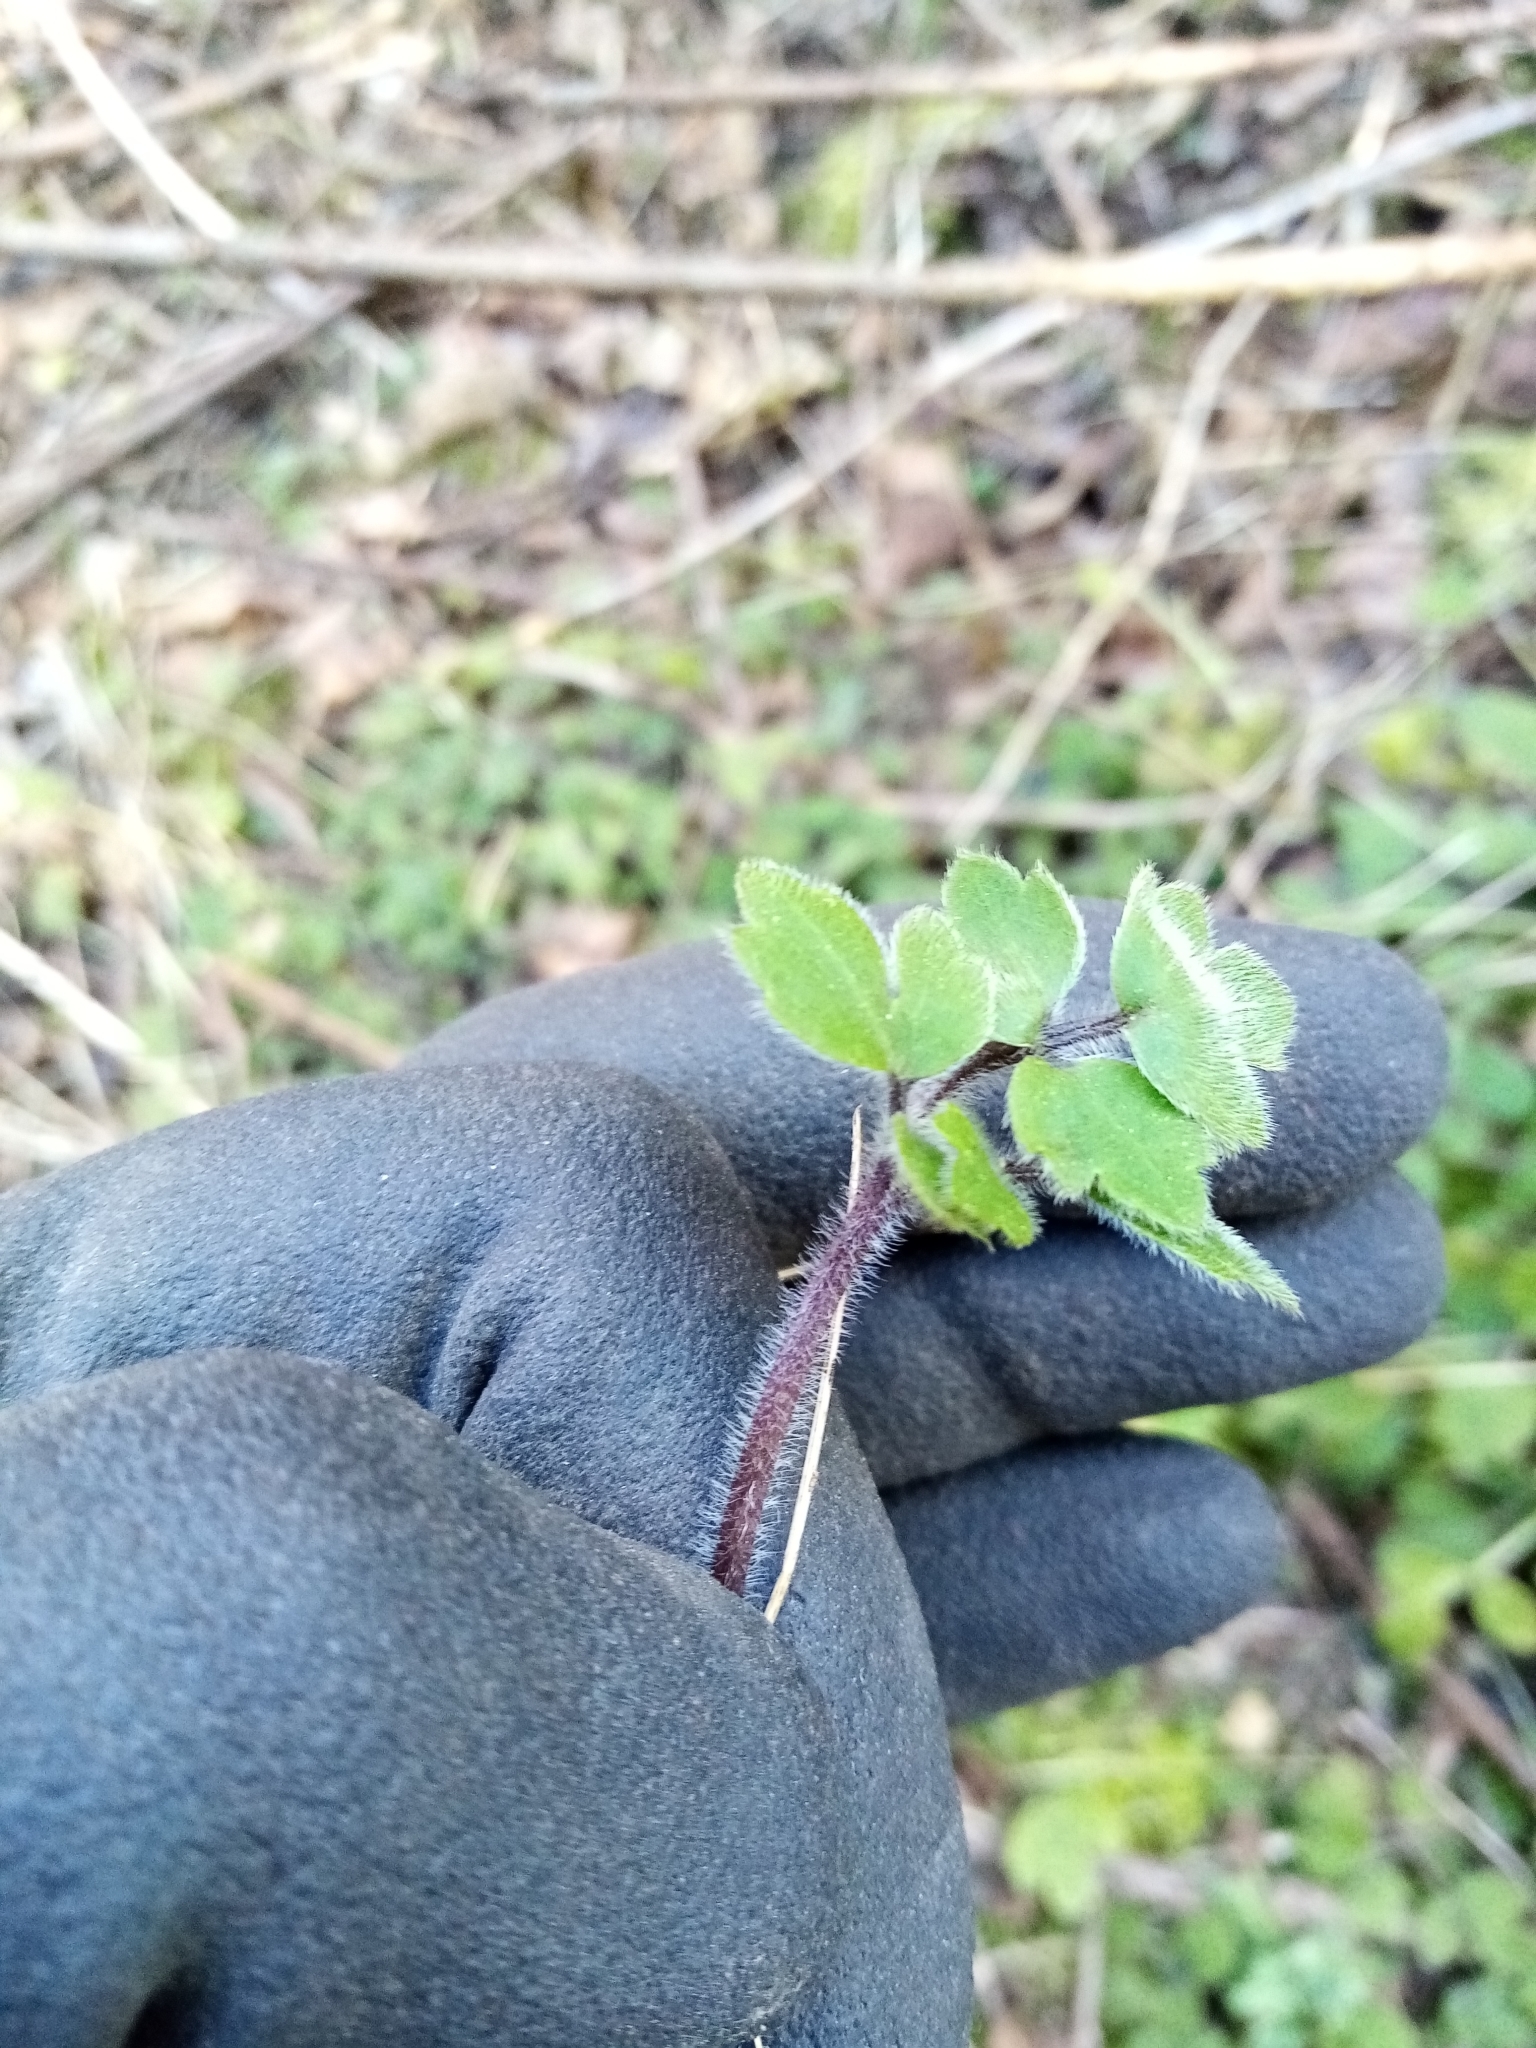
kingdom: Plantae
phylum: Tracheophyta
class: Magnoliopsida
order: Ranunculales
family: Ranunculaceae
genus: Ranunculus
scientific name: Ranunculus reflexus
